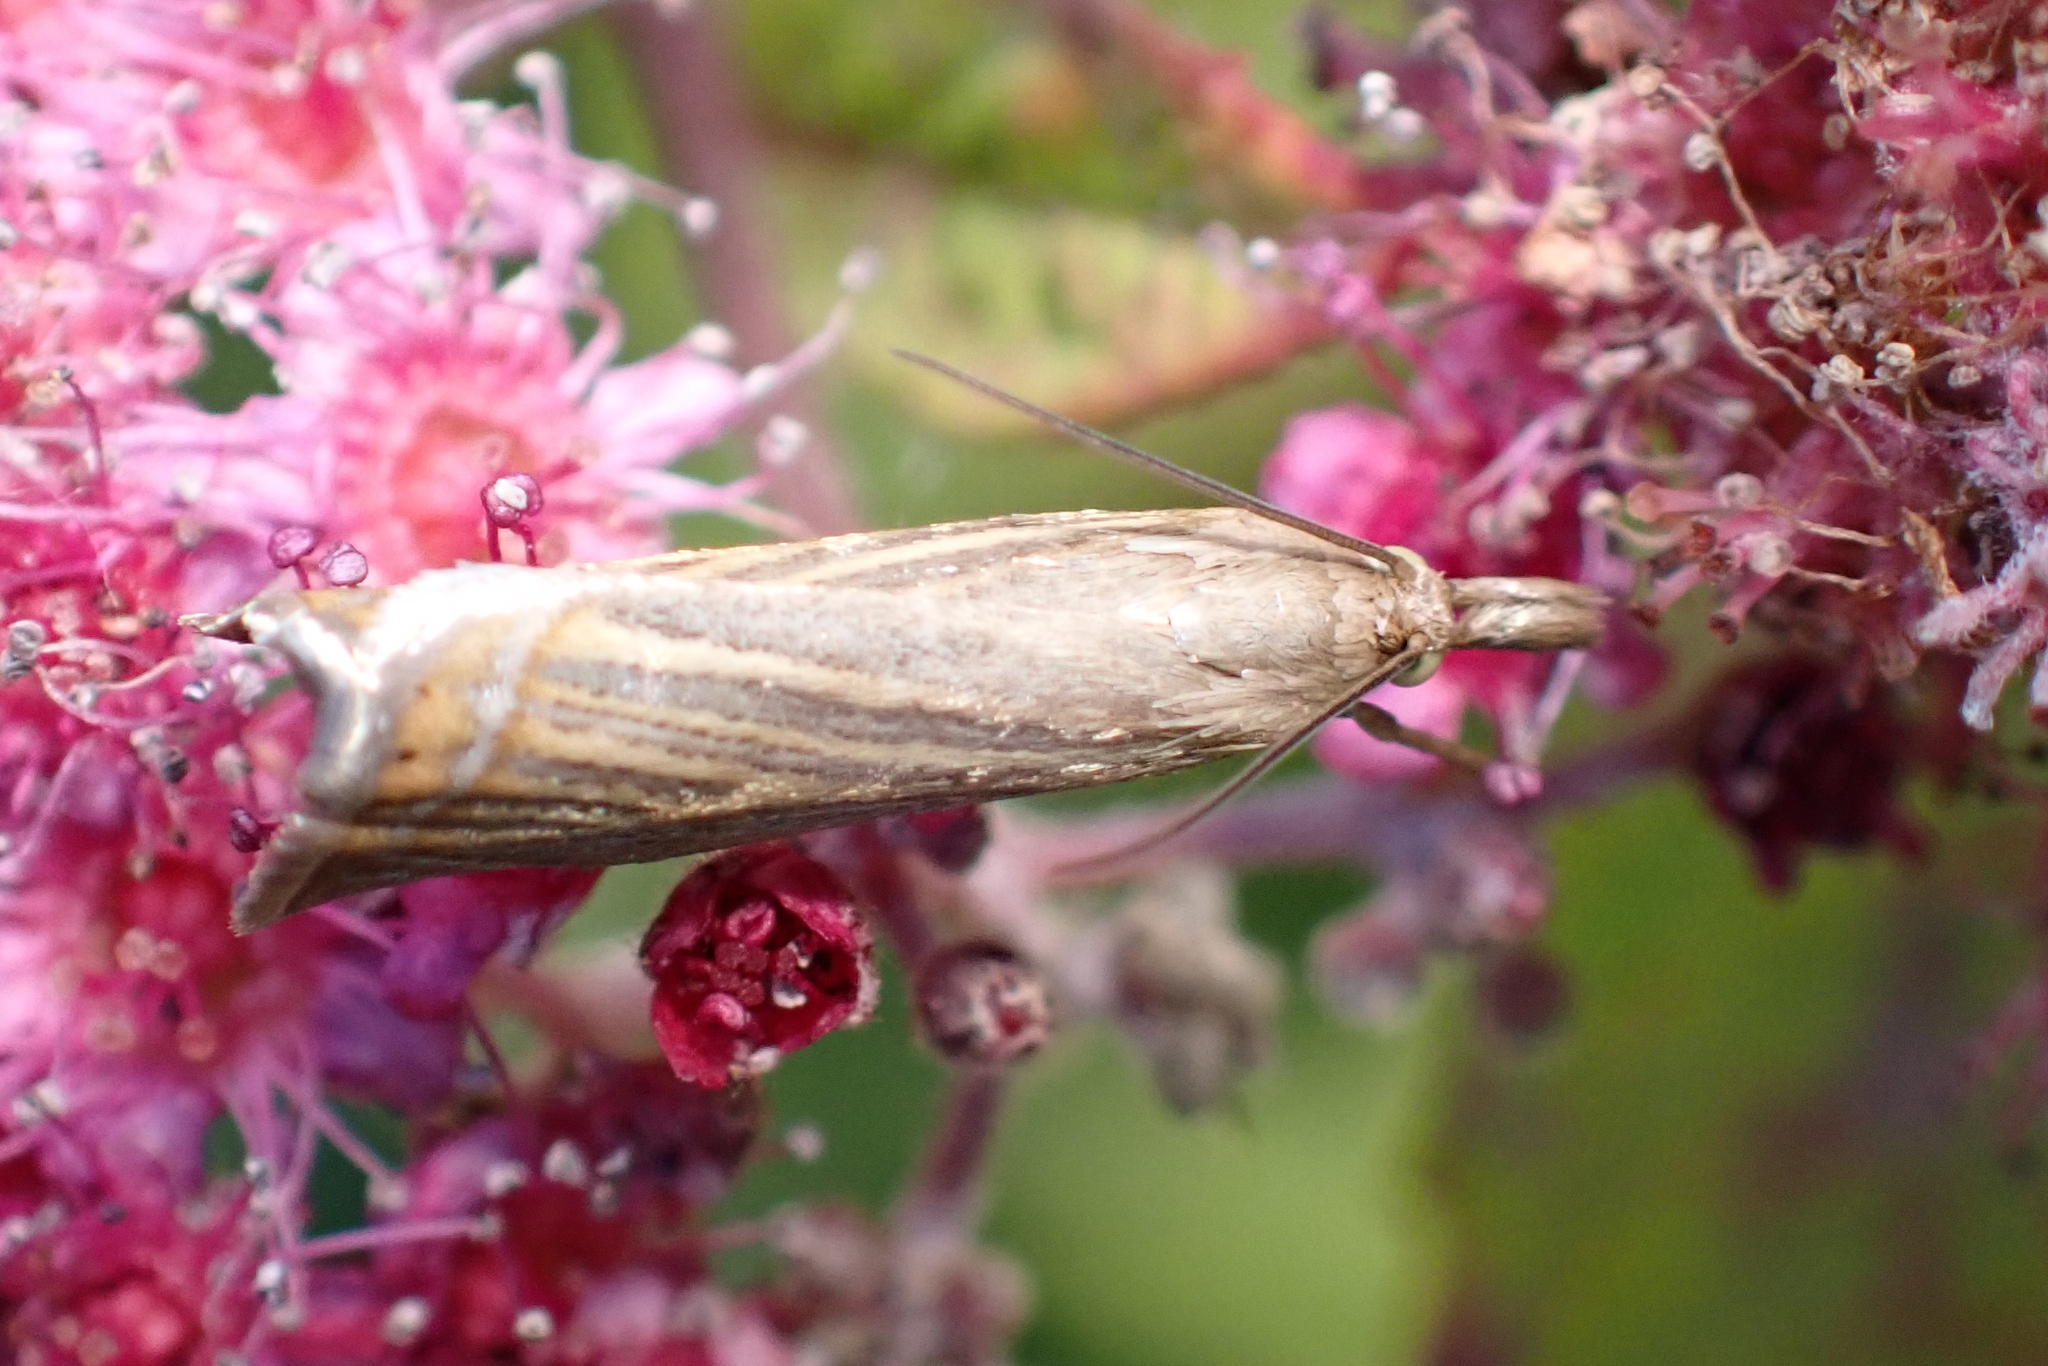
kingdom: Animalia
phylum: Arthropoda
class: Insecta
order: Lepidoptera
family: Crambidae
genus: Chrysoteuchia
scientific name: Chrysoteuchia culmella
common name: Garden grass-veneer
